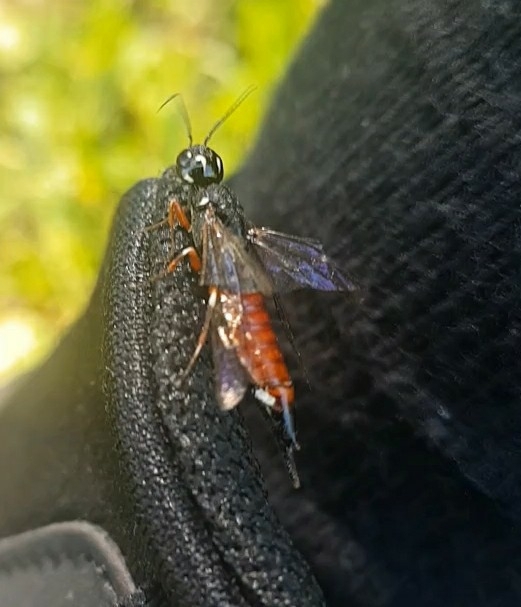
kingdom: Animalia
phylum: Arthropoda
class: Insecta
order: Hymenoptera
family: Xiphydriidae
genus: Xiphydria
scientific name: Xiphydria prolongata
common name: Wasp
